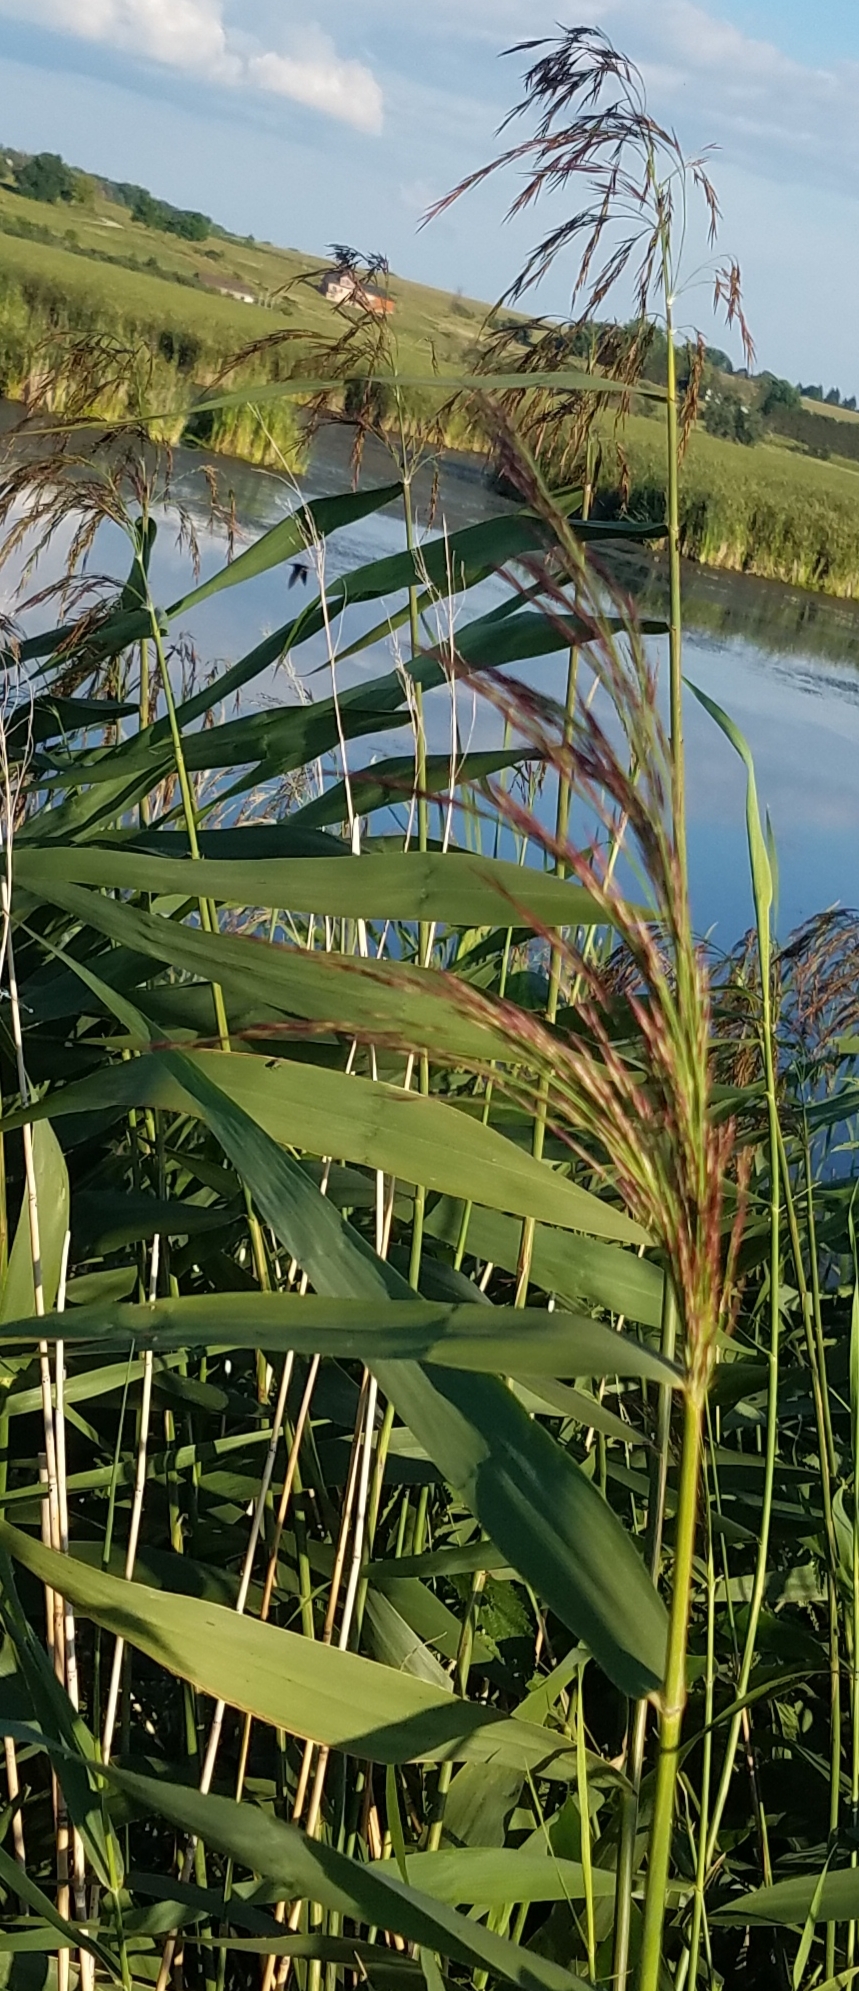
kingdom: Plantae
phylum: Tracheophyta
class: Liliopsida
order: Poales
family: Poaceae
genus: Phragmites
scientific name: Phragmites australis
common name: Common reed
